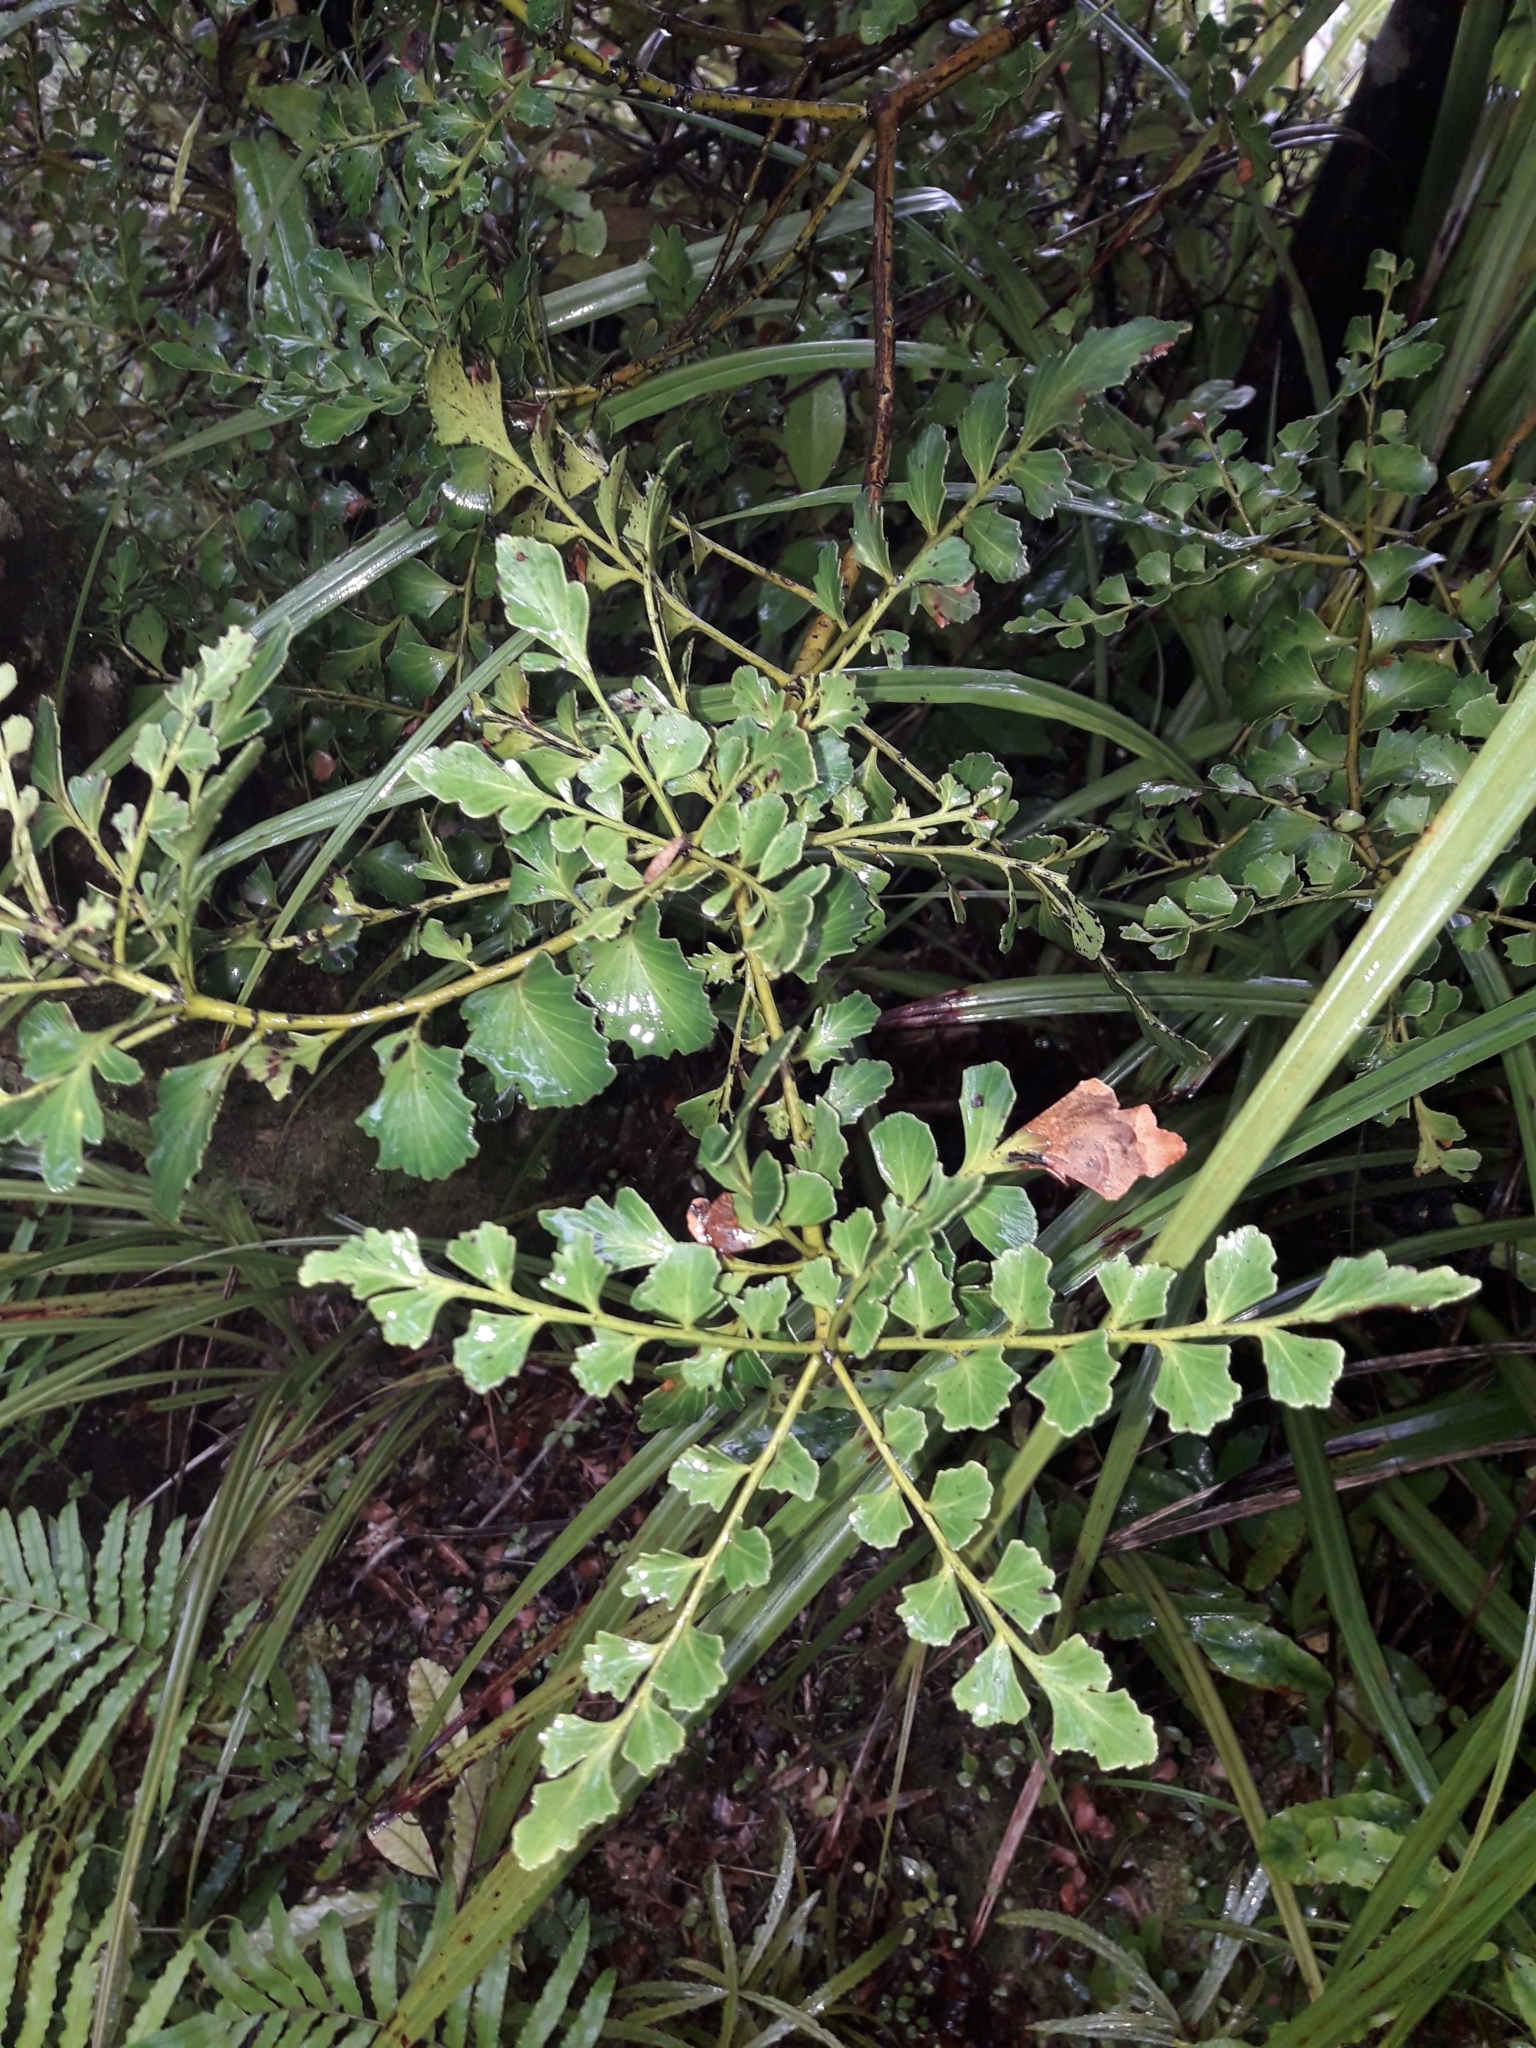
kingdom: Plantae
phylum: Tracheophyta
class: Pinopsida
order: Pinales
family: Phyllocladaceae
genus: Phyllocladus
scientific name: Phyllocladus toatoa
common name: Celery-top pine
